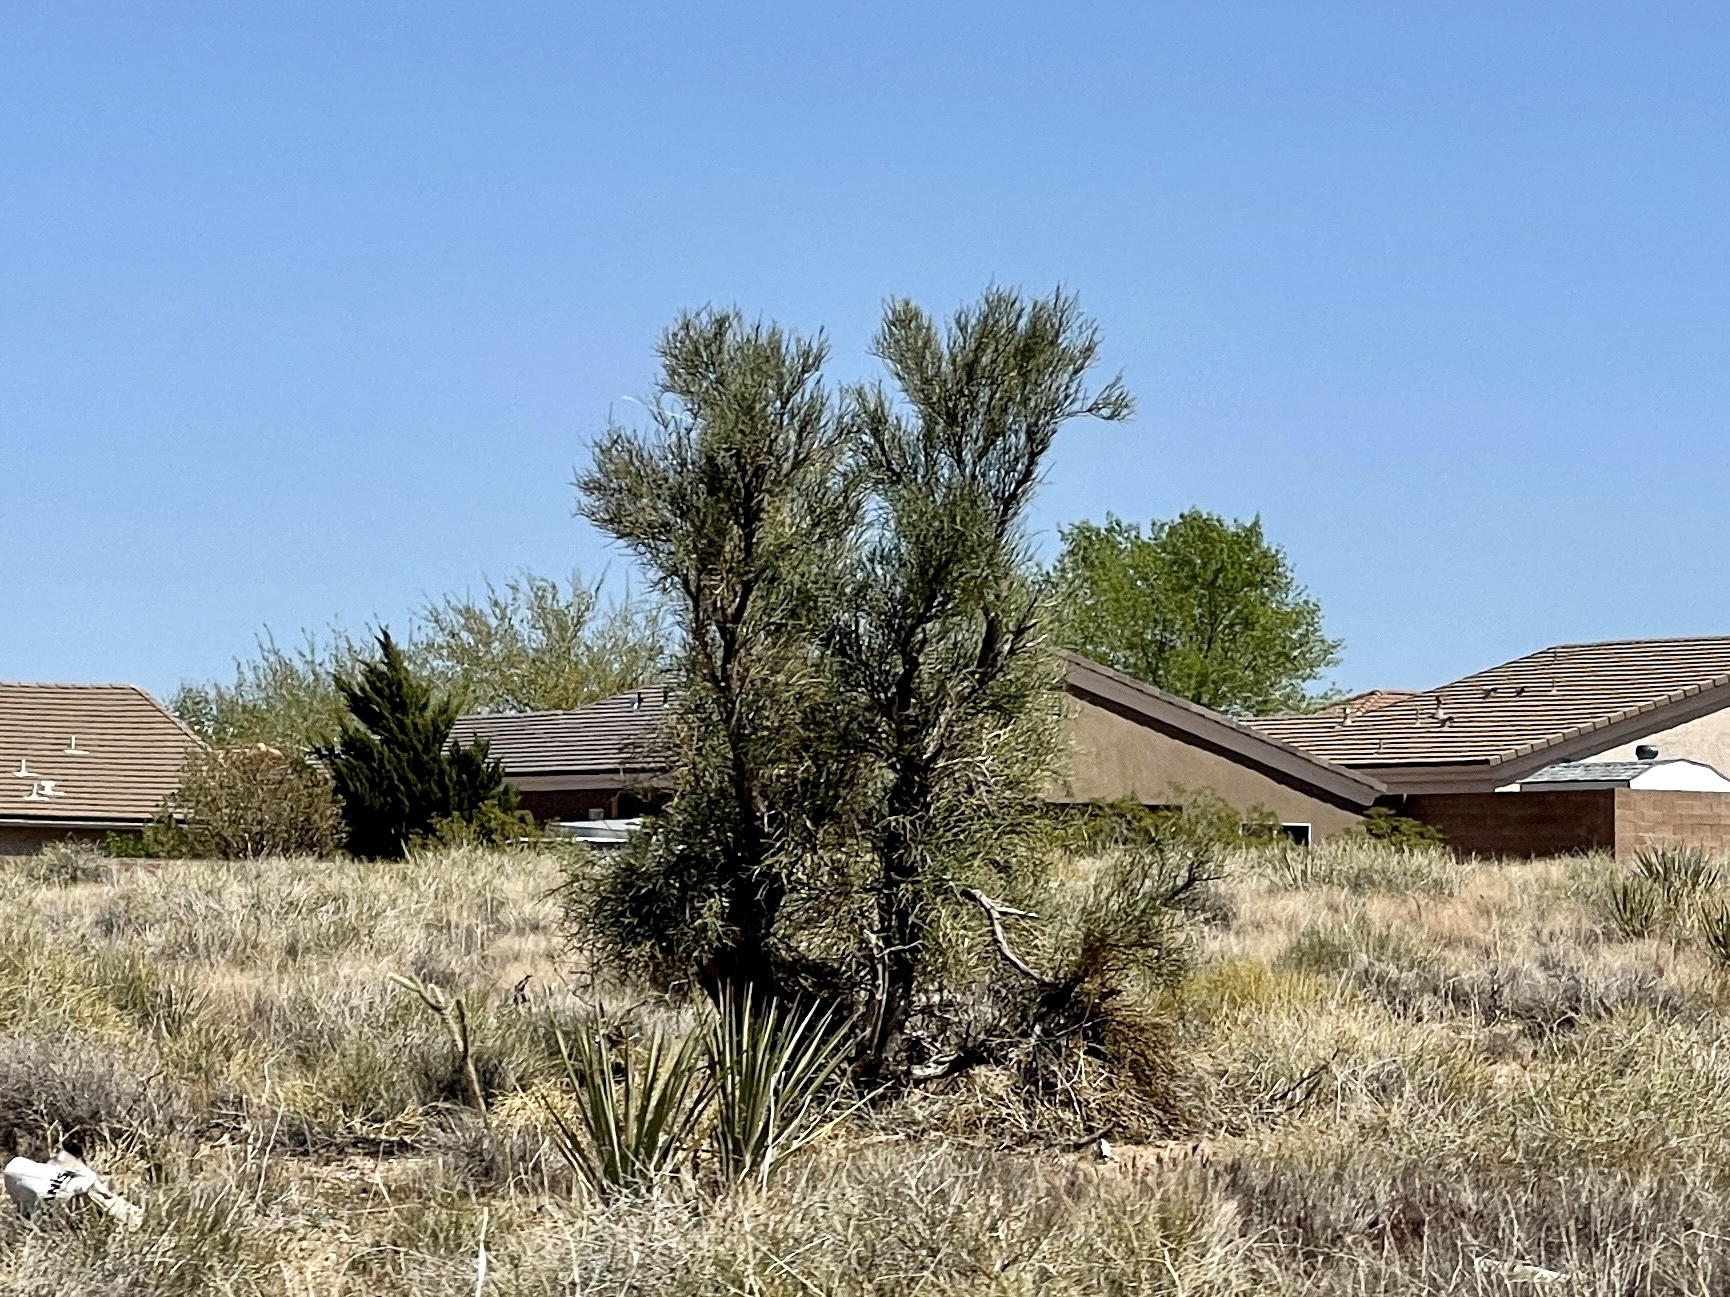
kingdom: Plantae
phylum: Tracheophyta
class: Magnoliopsida
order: Celastrales
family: Celastraceae
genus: Canotia
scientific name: Canotia holacantha
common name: Crucifixion thorns
